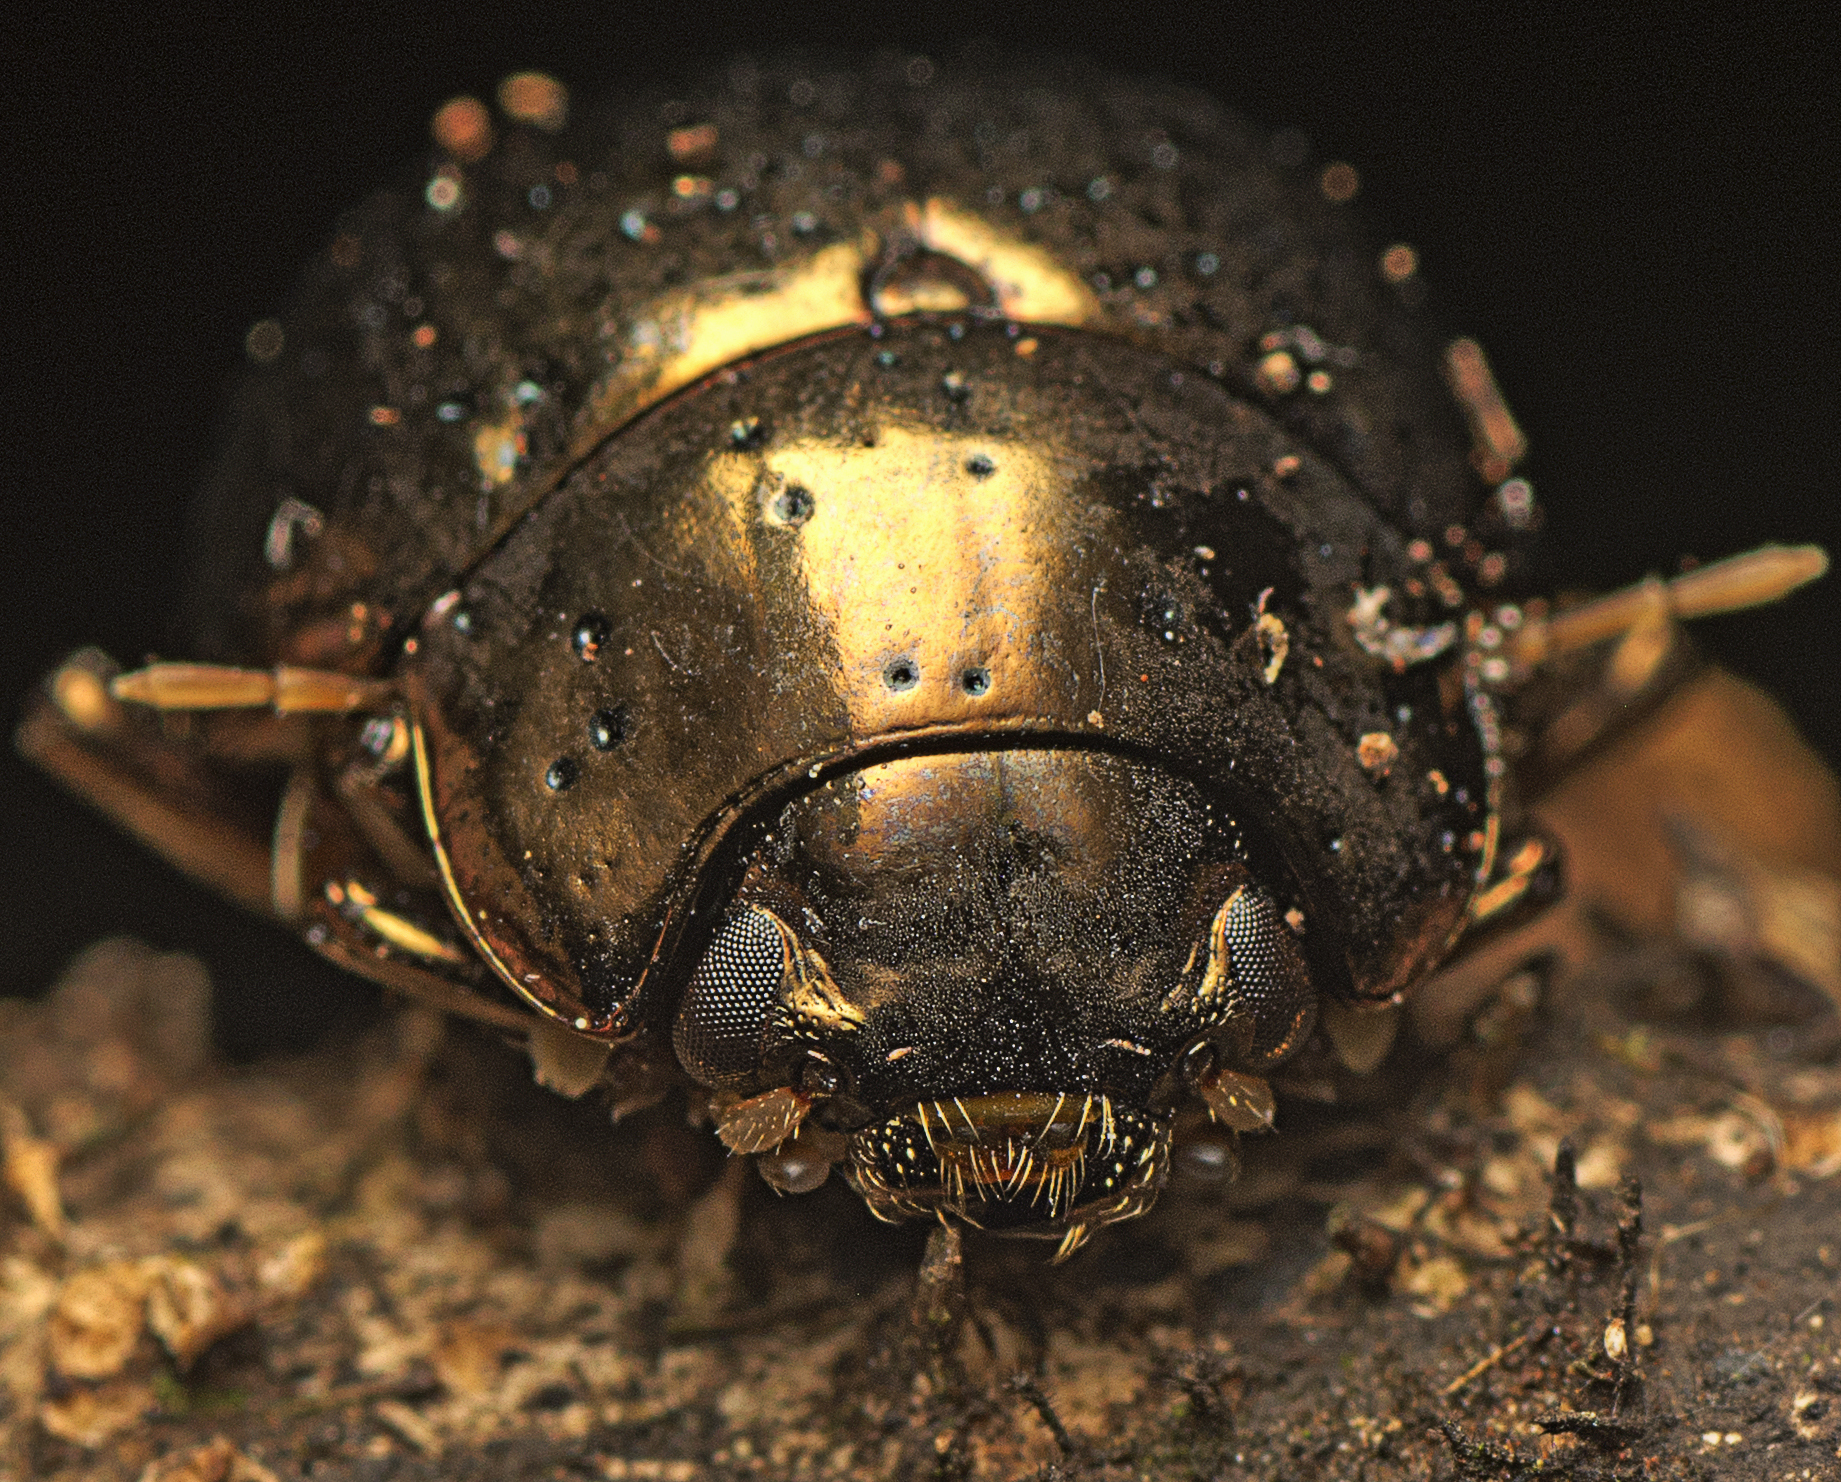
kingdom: Animalia
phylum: Arthropoda
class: Insecta
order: Coleoptera
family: Chrysomelidae
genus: Callidemum
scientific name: Callidemum
